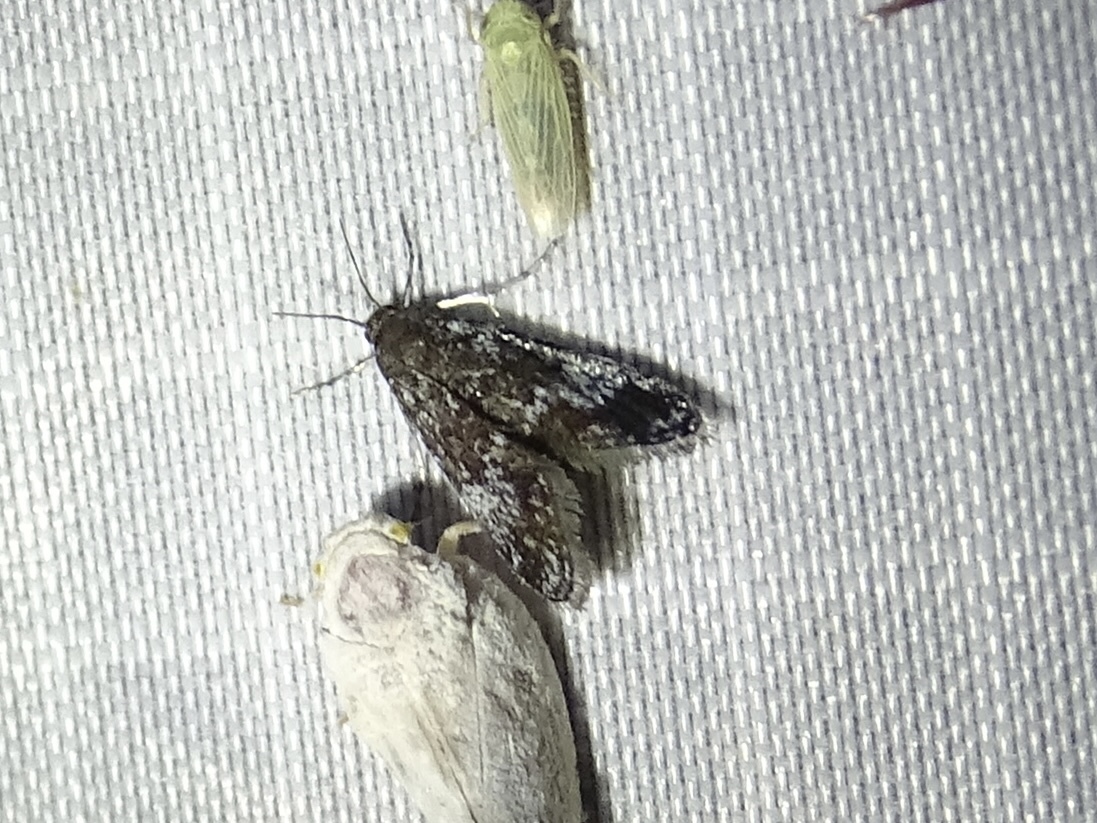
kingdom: Animalia
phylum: Arthropoda
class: Insecta
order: Lepidoptera
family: Crambidae
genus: Elophila
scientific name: Elophila tinealis
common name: Black duckweed moth
